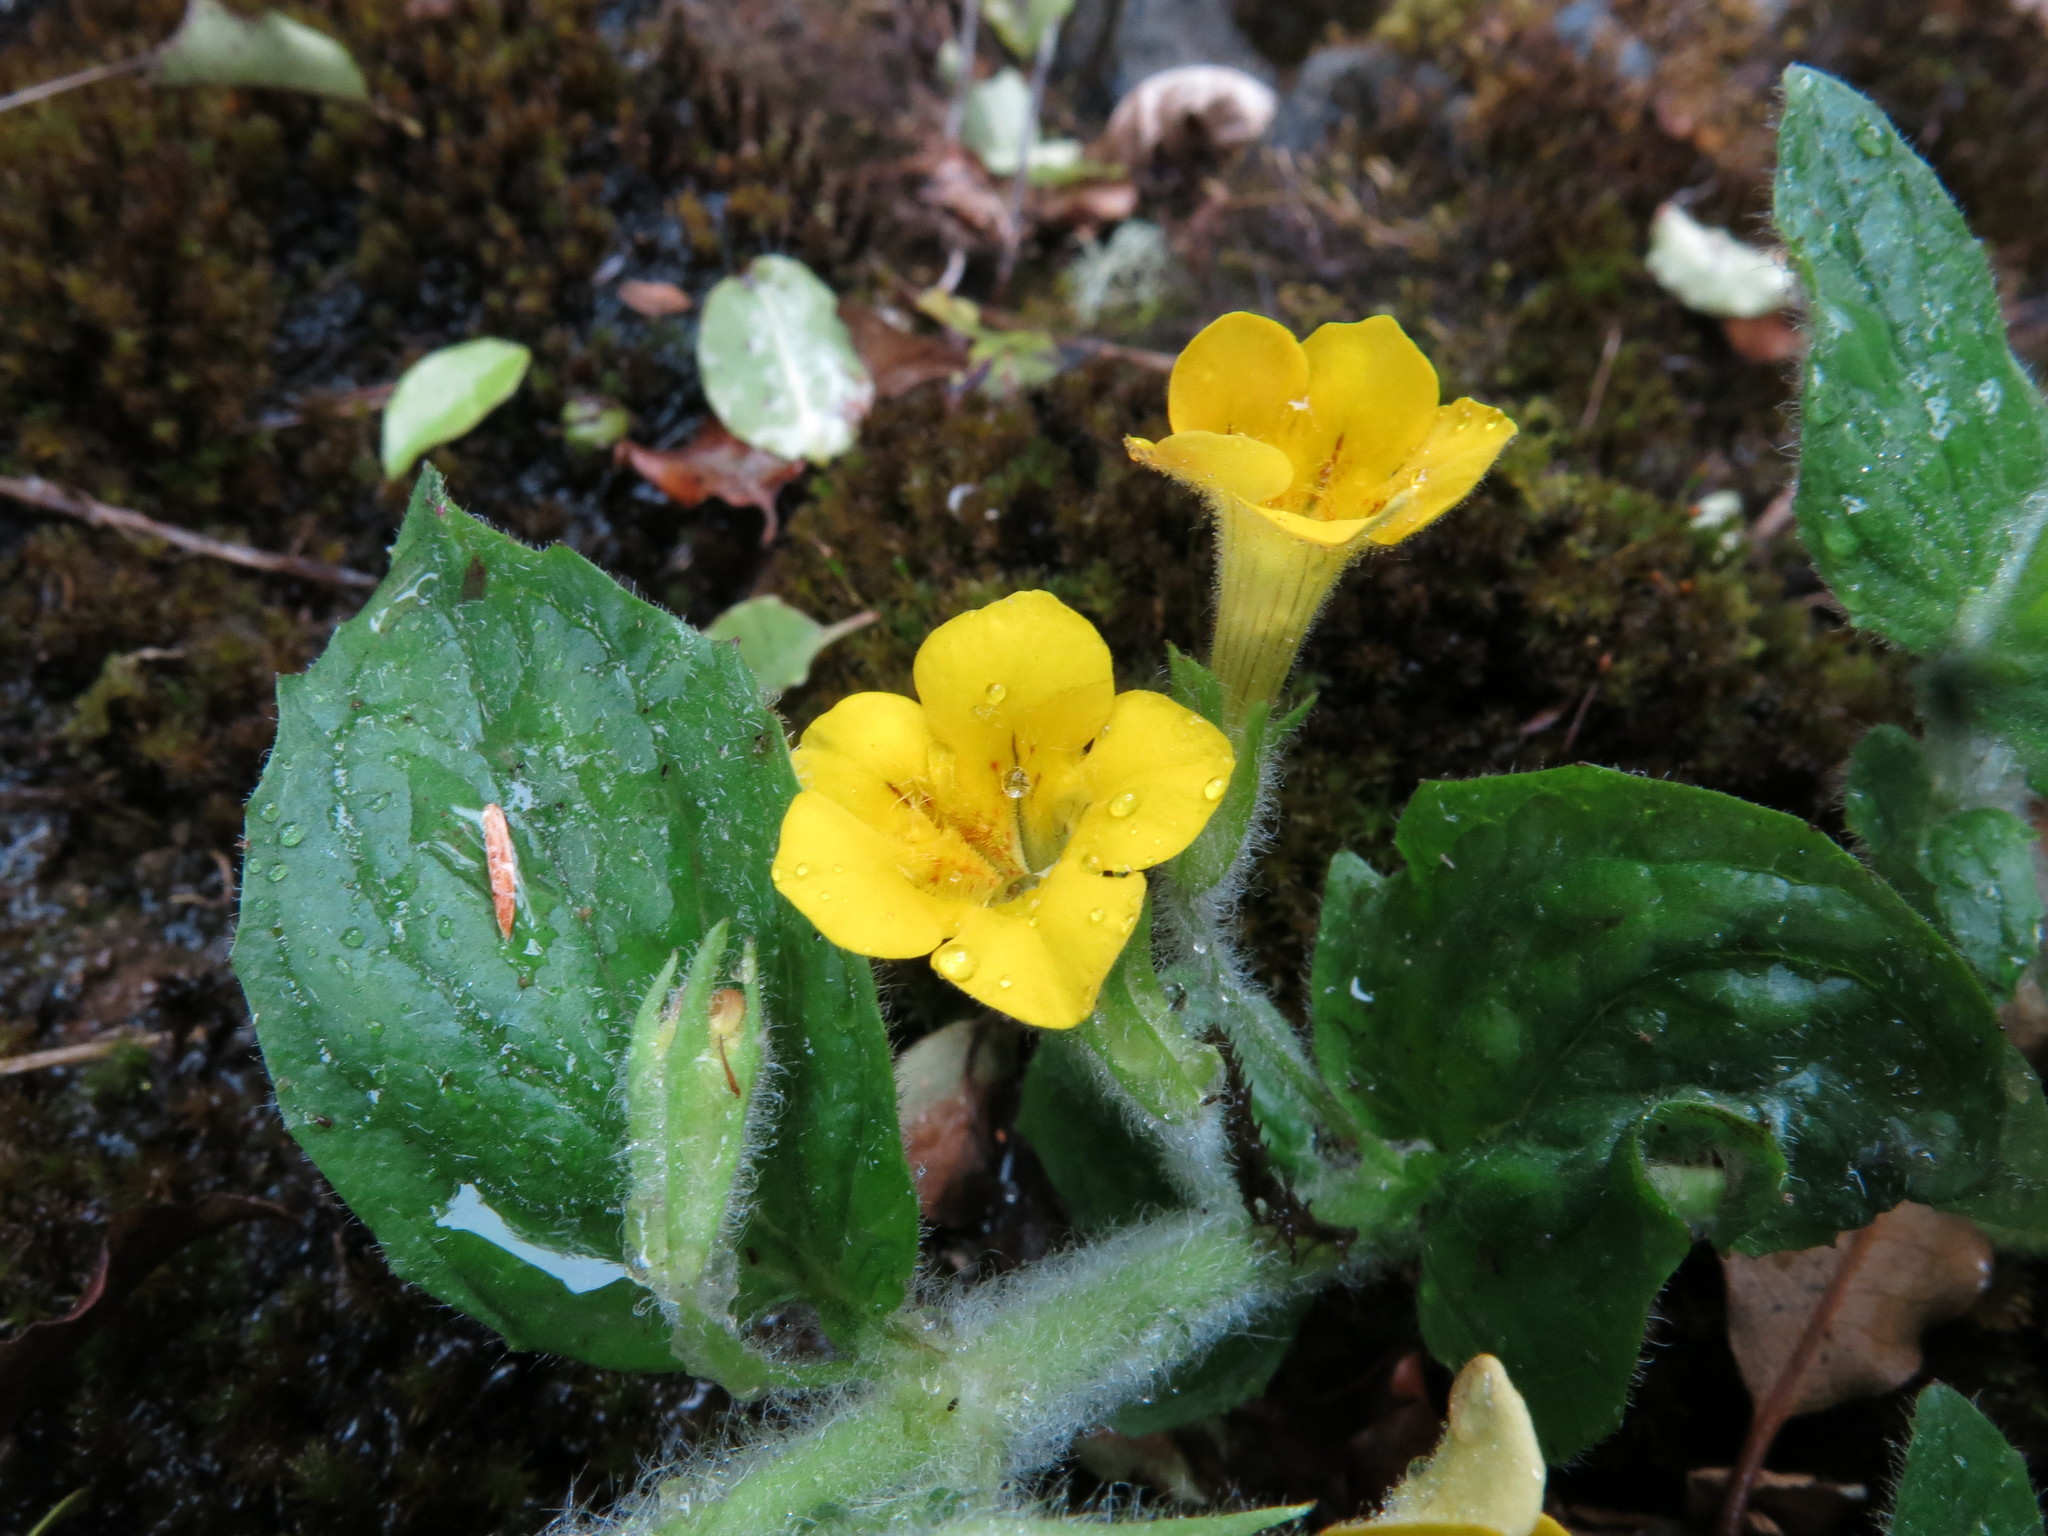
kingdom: Plantae
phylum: Tracheophyta
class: Magnoliopsida
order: Lamiales
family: Phrymaceae
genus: Erythranthe
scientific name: Erythranthe moschata
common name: Muskflower
